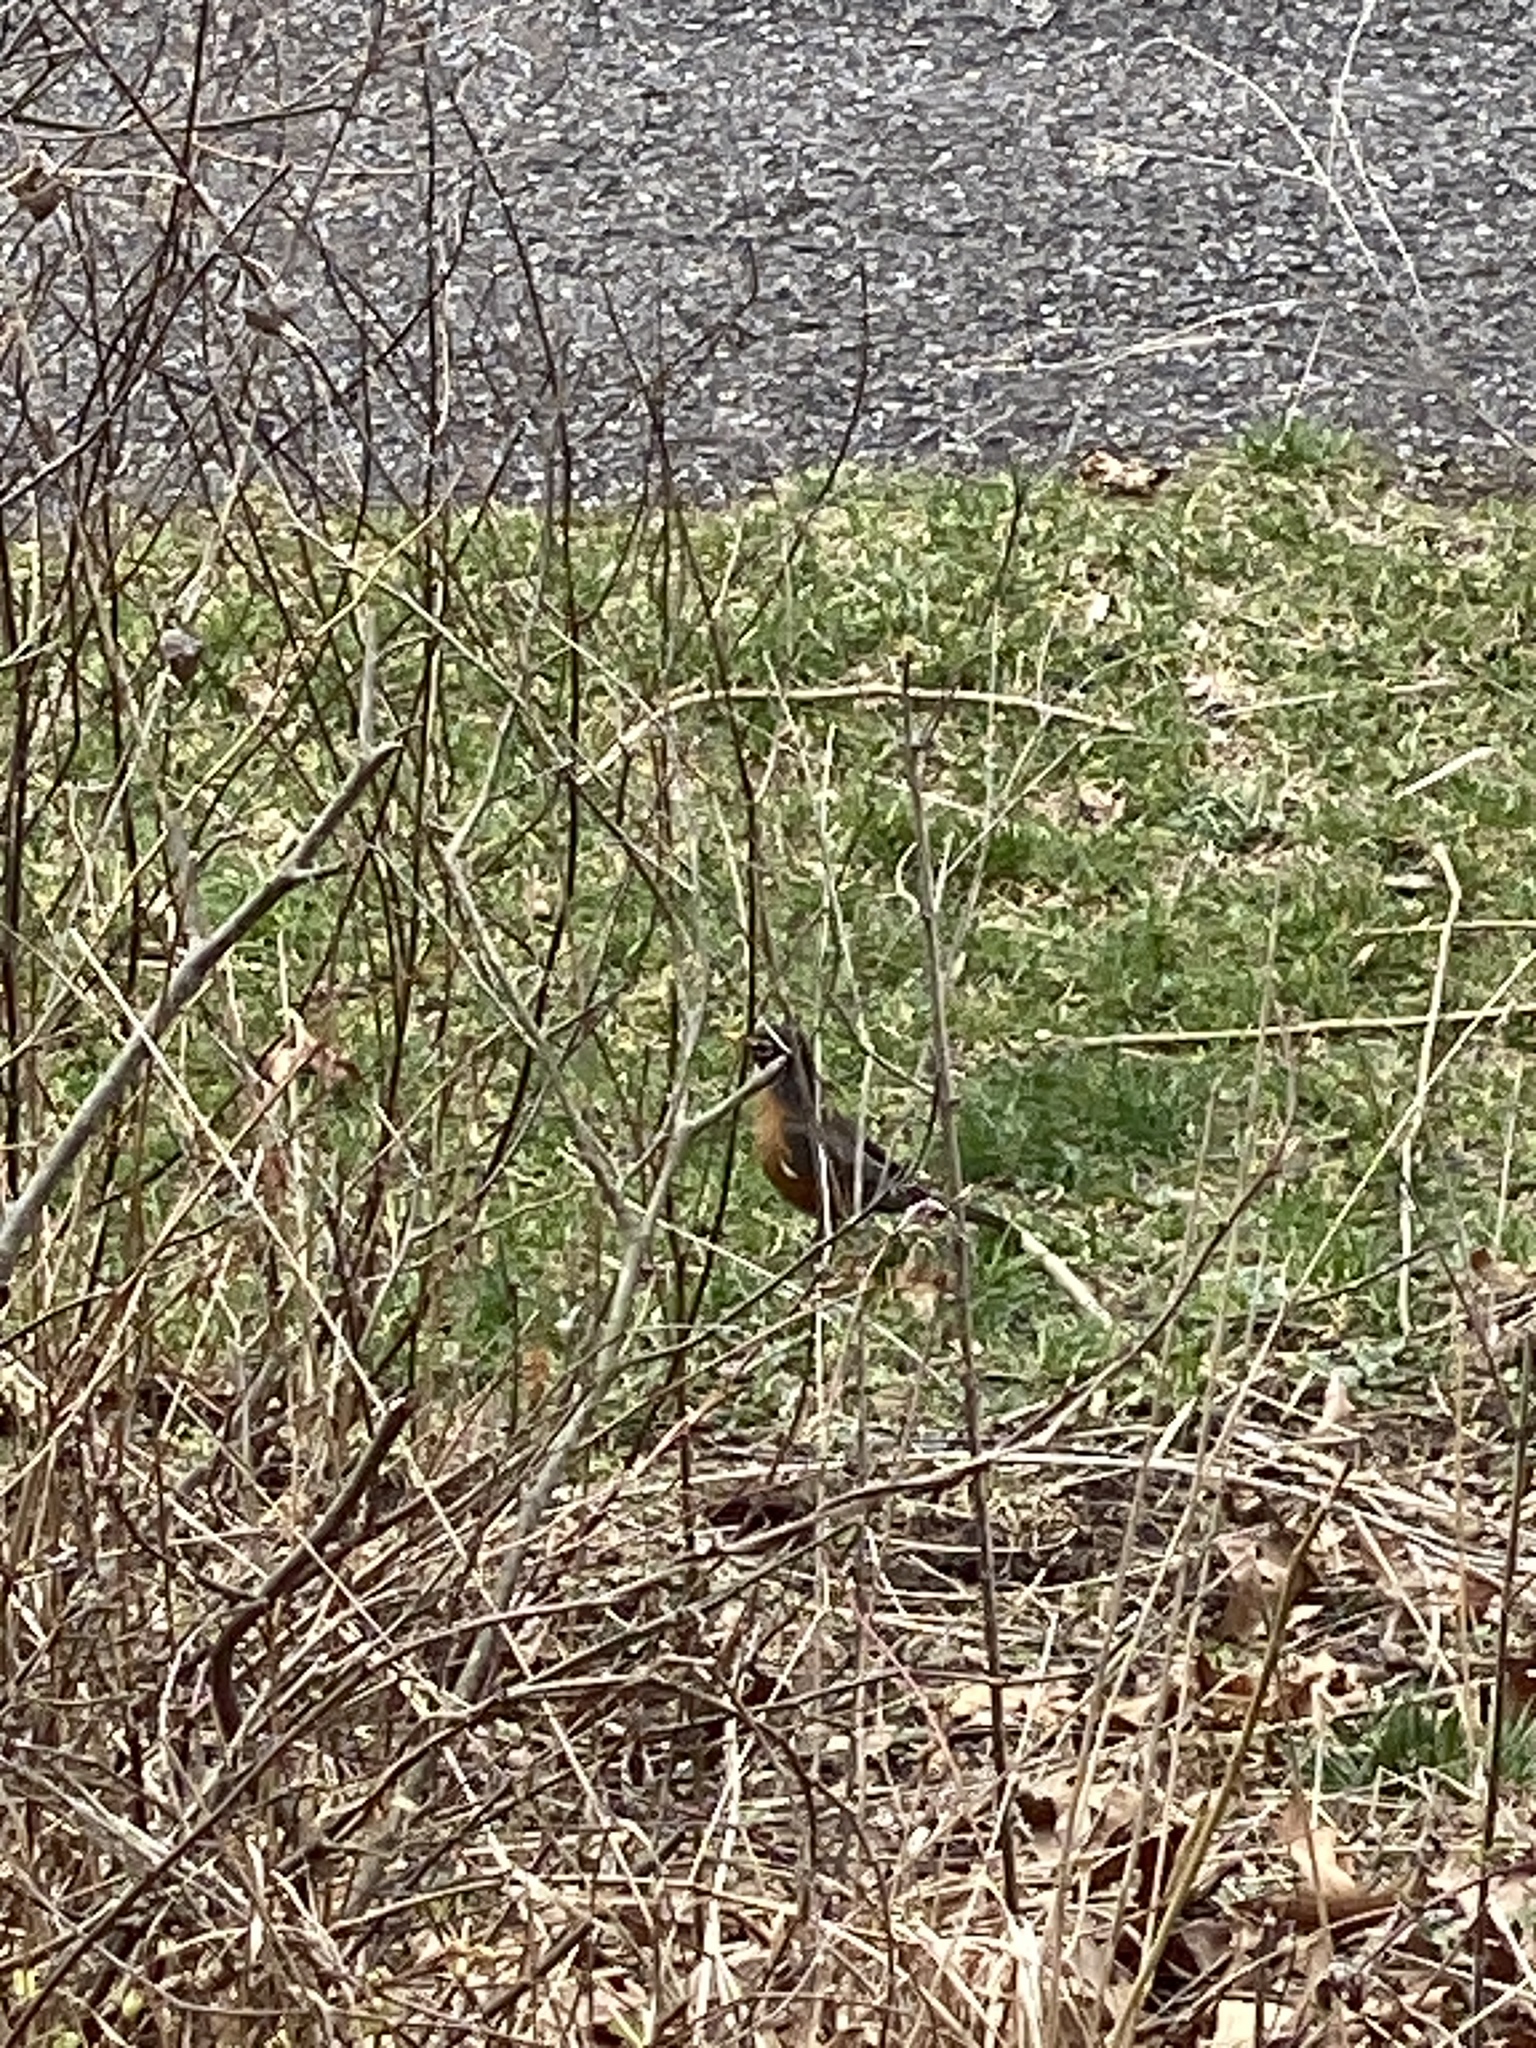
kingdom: Animalia
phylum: Chordata
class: Aves
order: Passeriformes
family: Turdidae
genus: Turdus
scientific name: Turdus migratorius
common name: American robin
